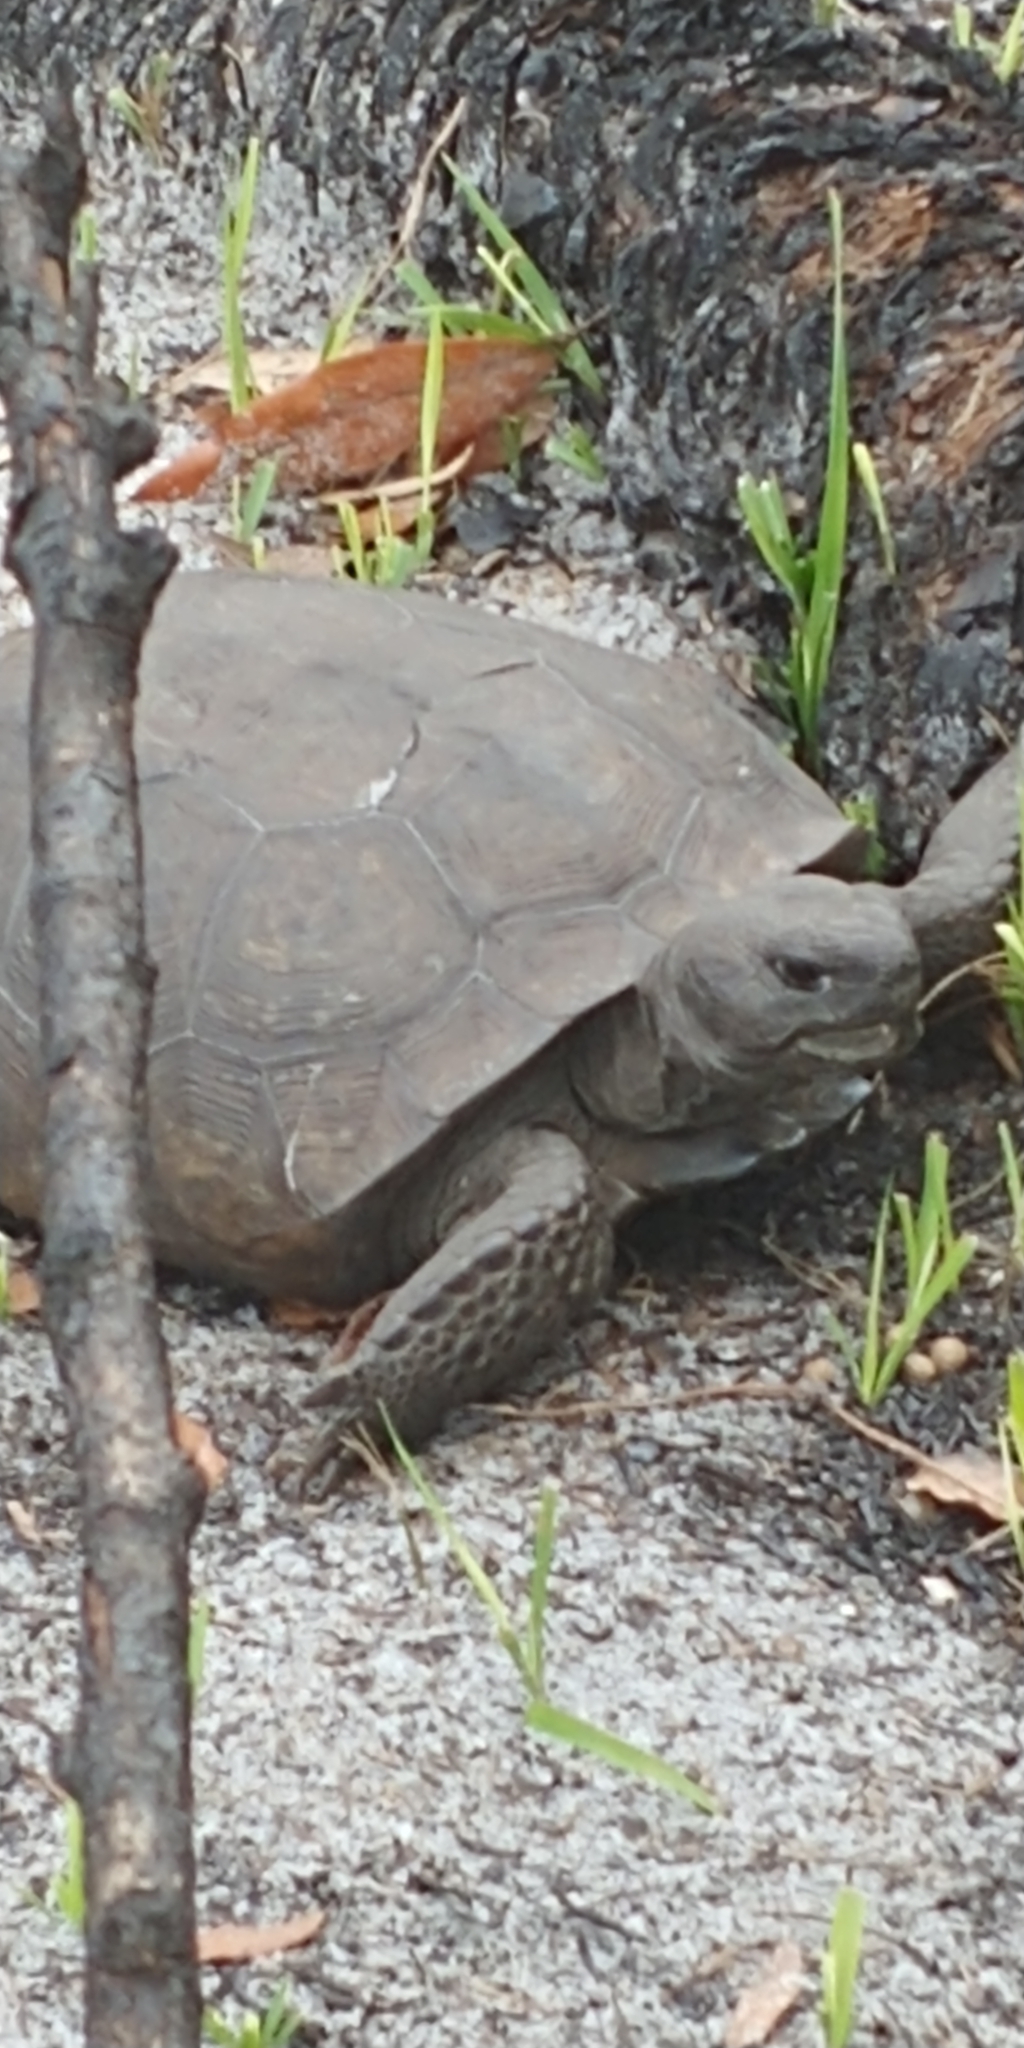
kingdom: Animalia
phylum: Chordata
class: Testudines
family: Testudinidae
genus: Gopherus
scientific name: Gopherus polyphemus
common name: Florida gopher tortoise
